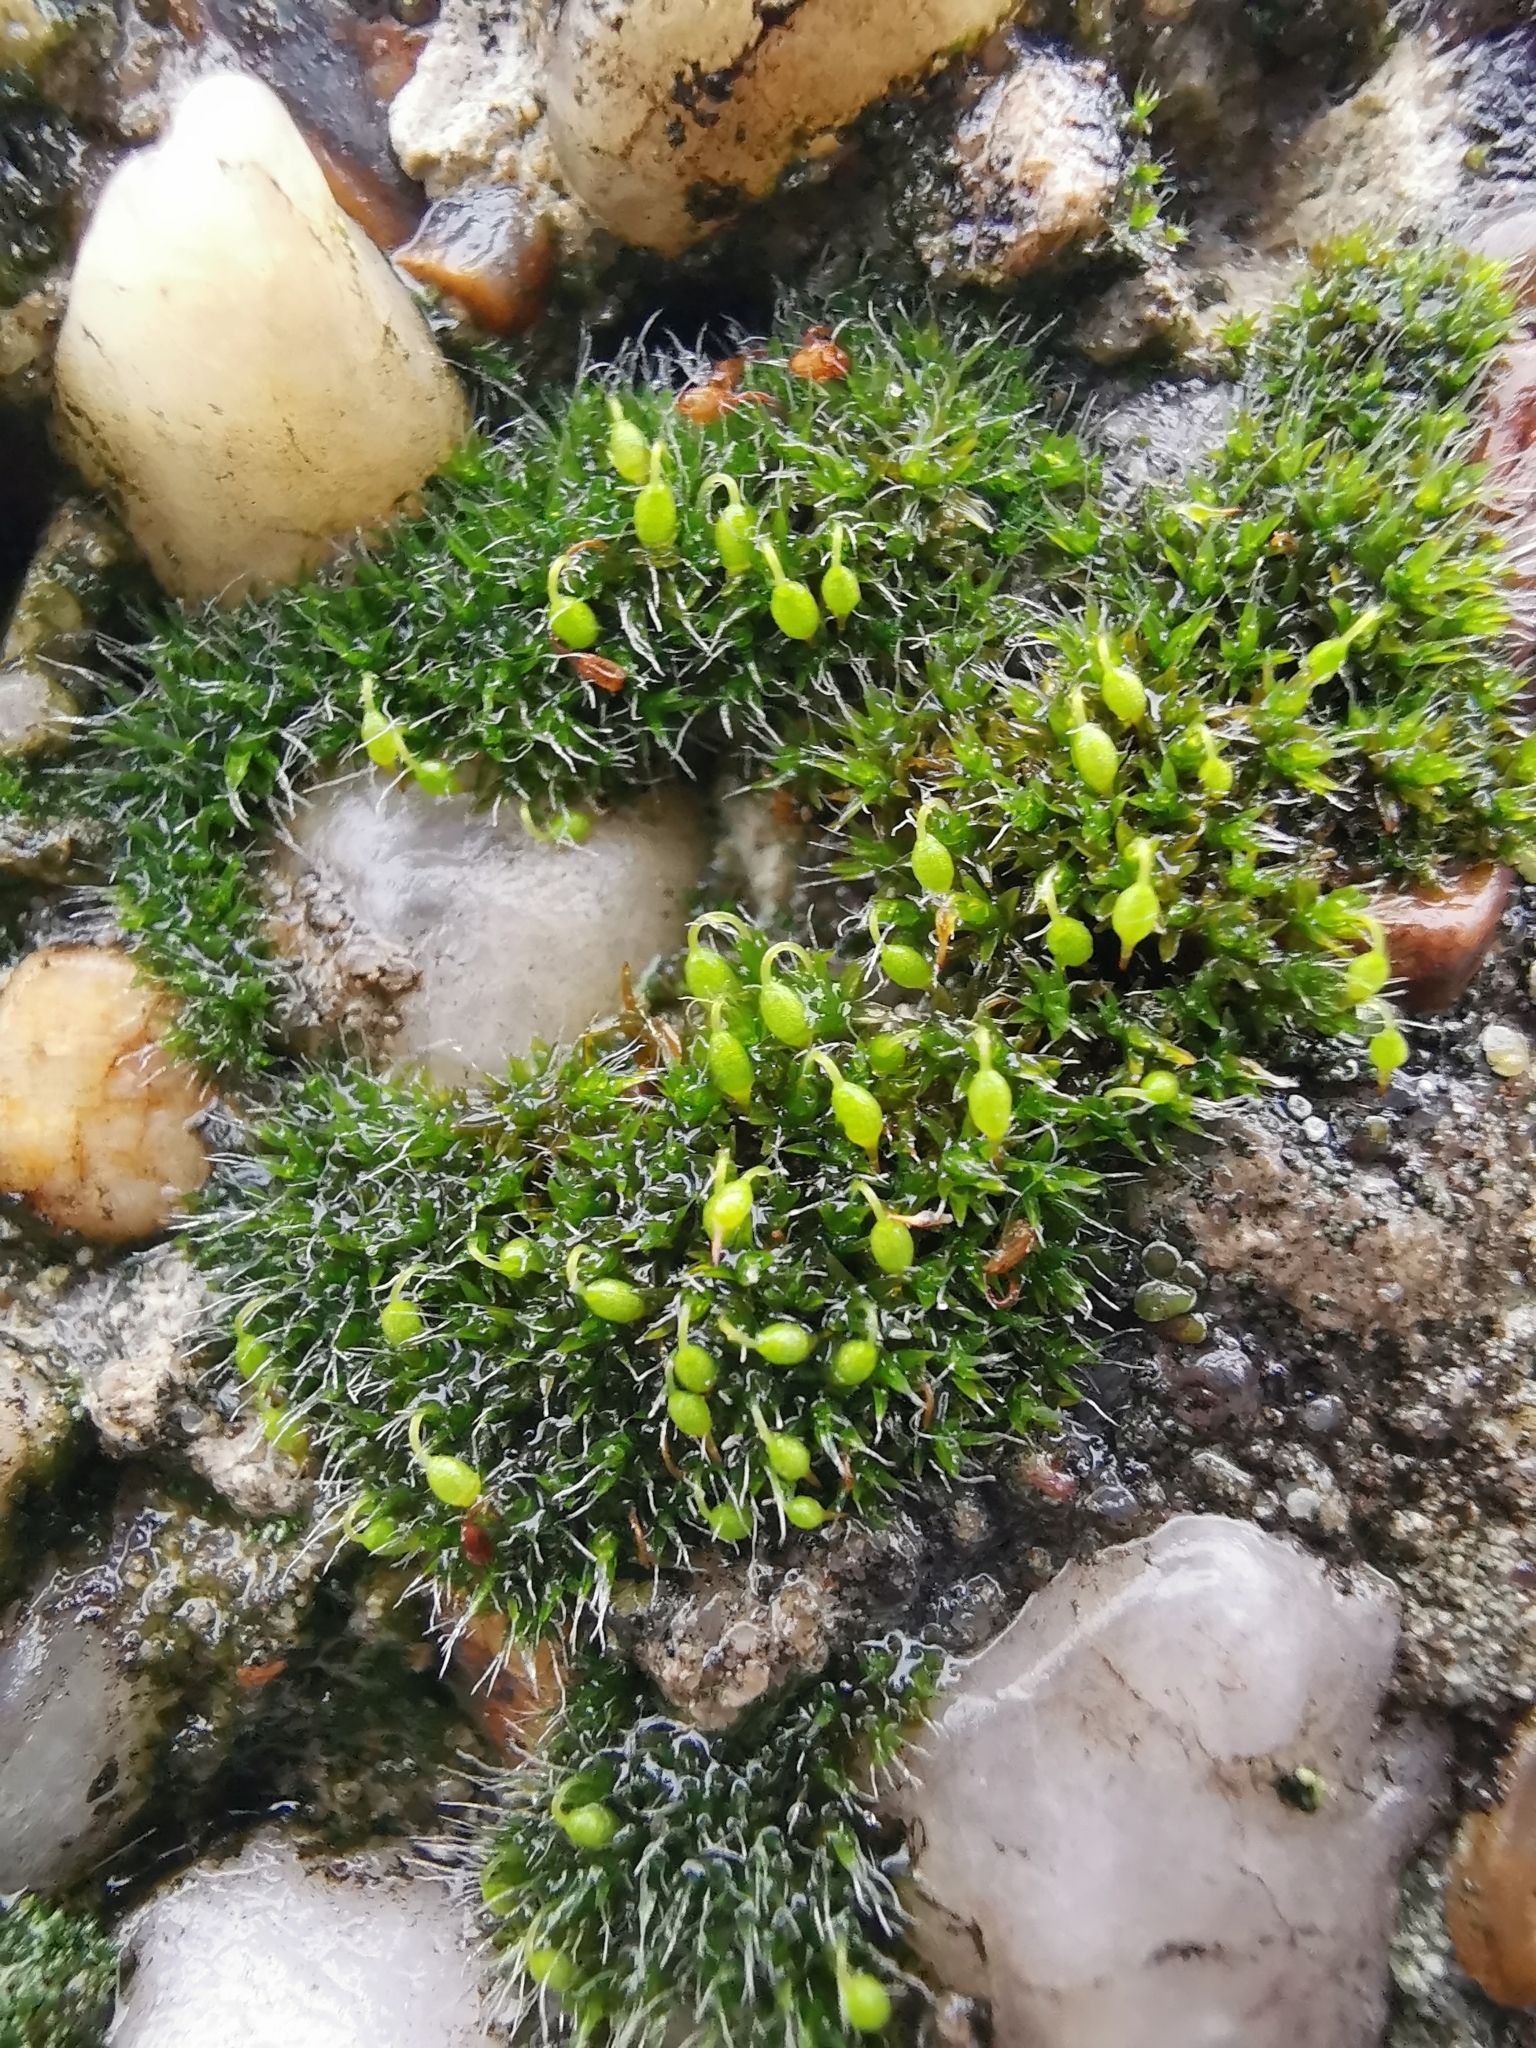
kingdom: Plantae
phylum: Bryophyta
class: Bryopsida
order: Grimmiales
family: Grimmiaceae
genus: Grimmia
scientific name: Grimmia pulvinata
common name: Grey-cushioned grimmia
